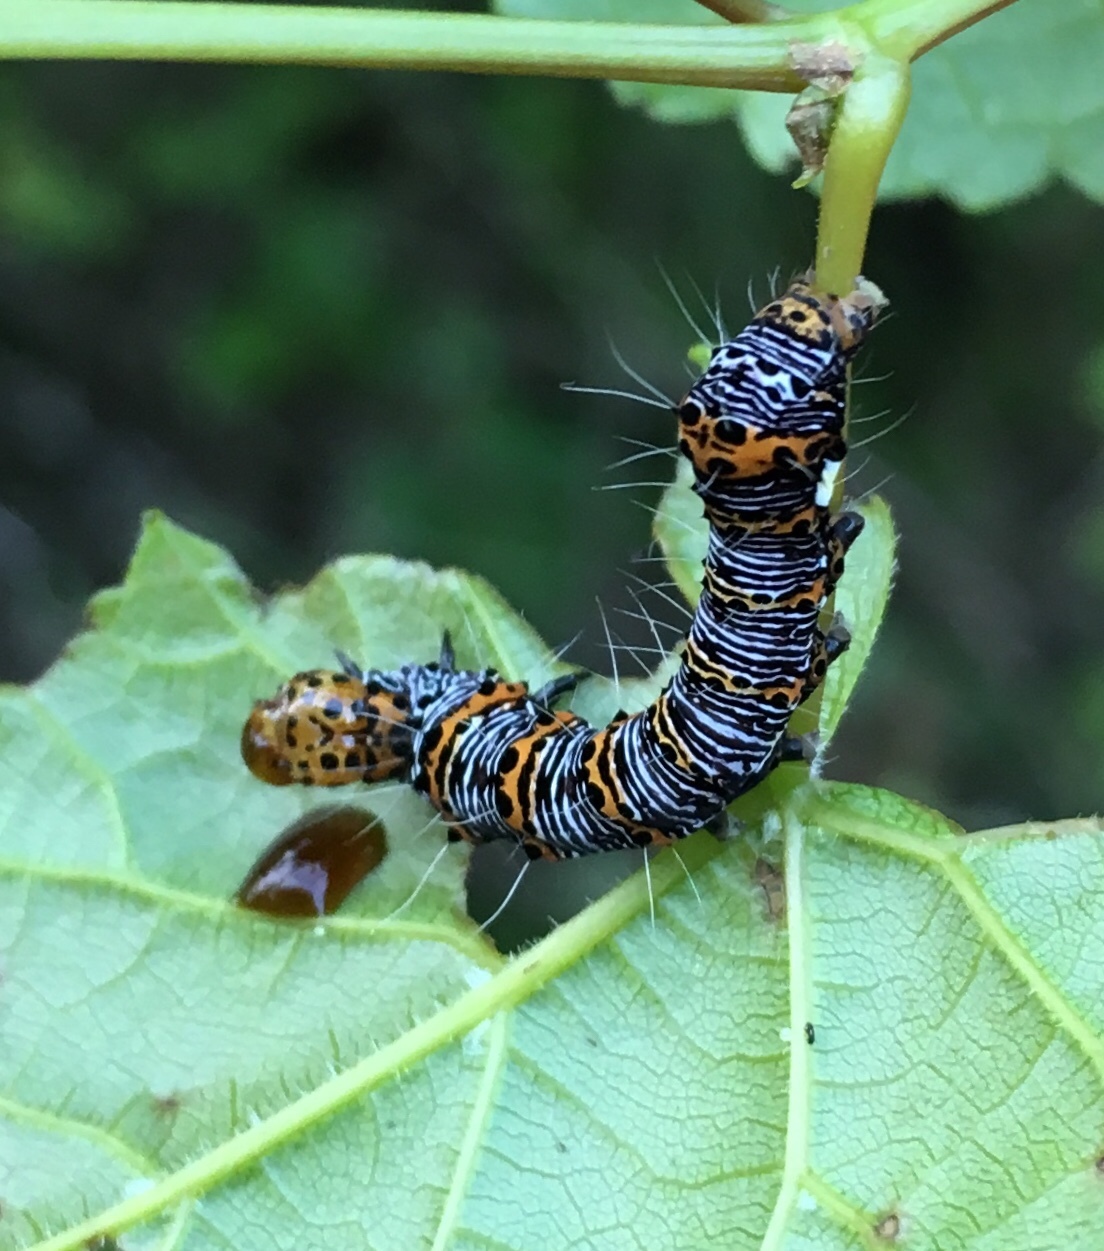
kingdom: Animalia
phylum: Arthropoda
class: Insecta
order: Lepidoptera
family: Noctuidae
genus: Alypia
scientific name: Alypia octomaculata
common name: Eight-spotted forester
